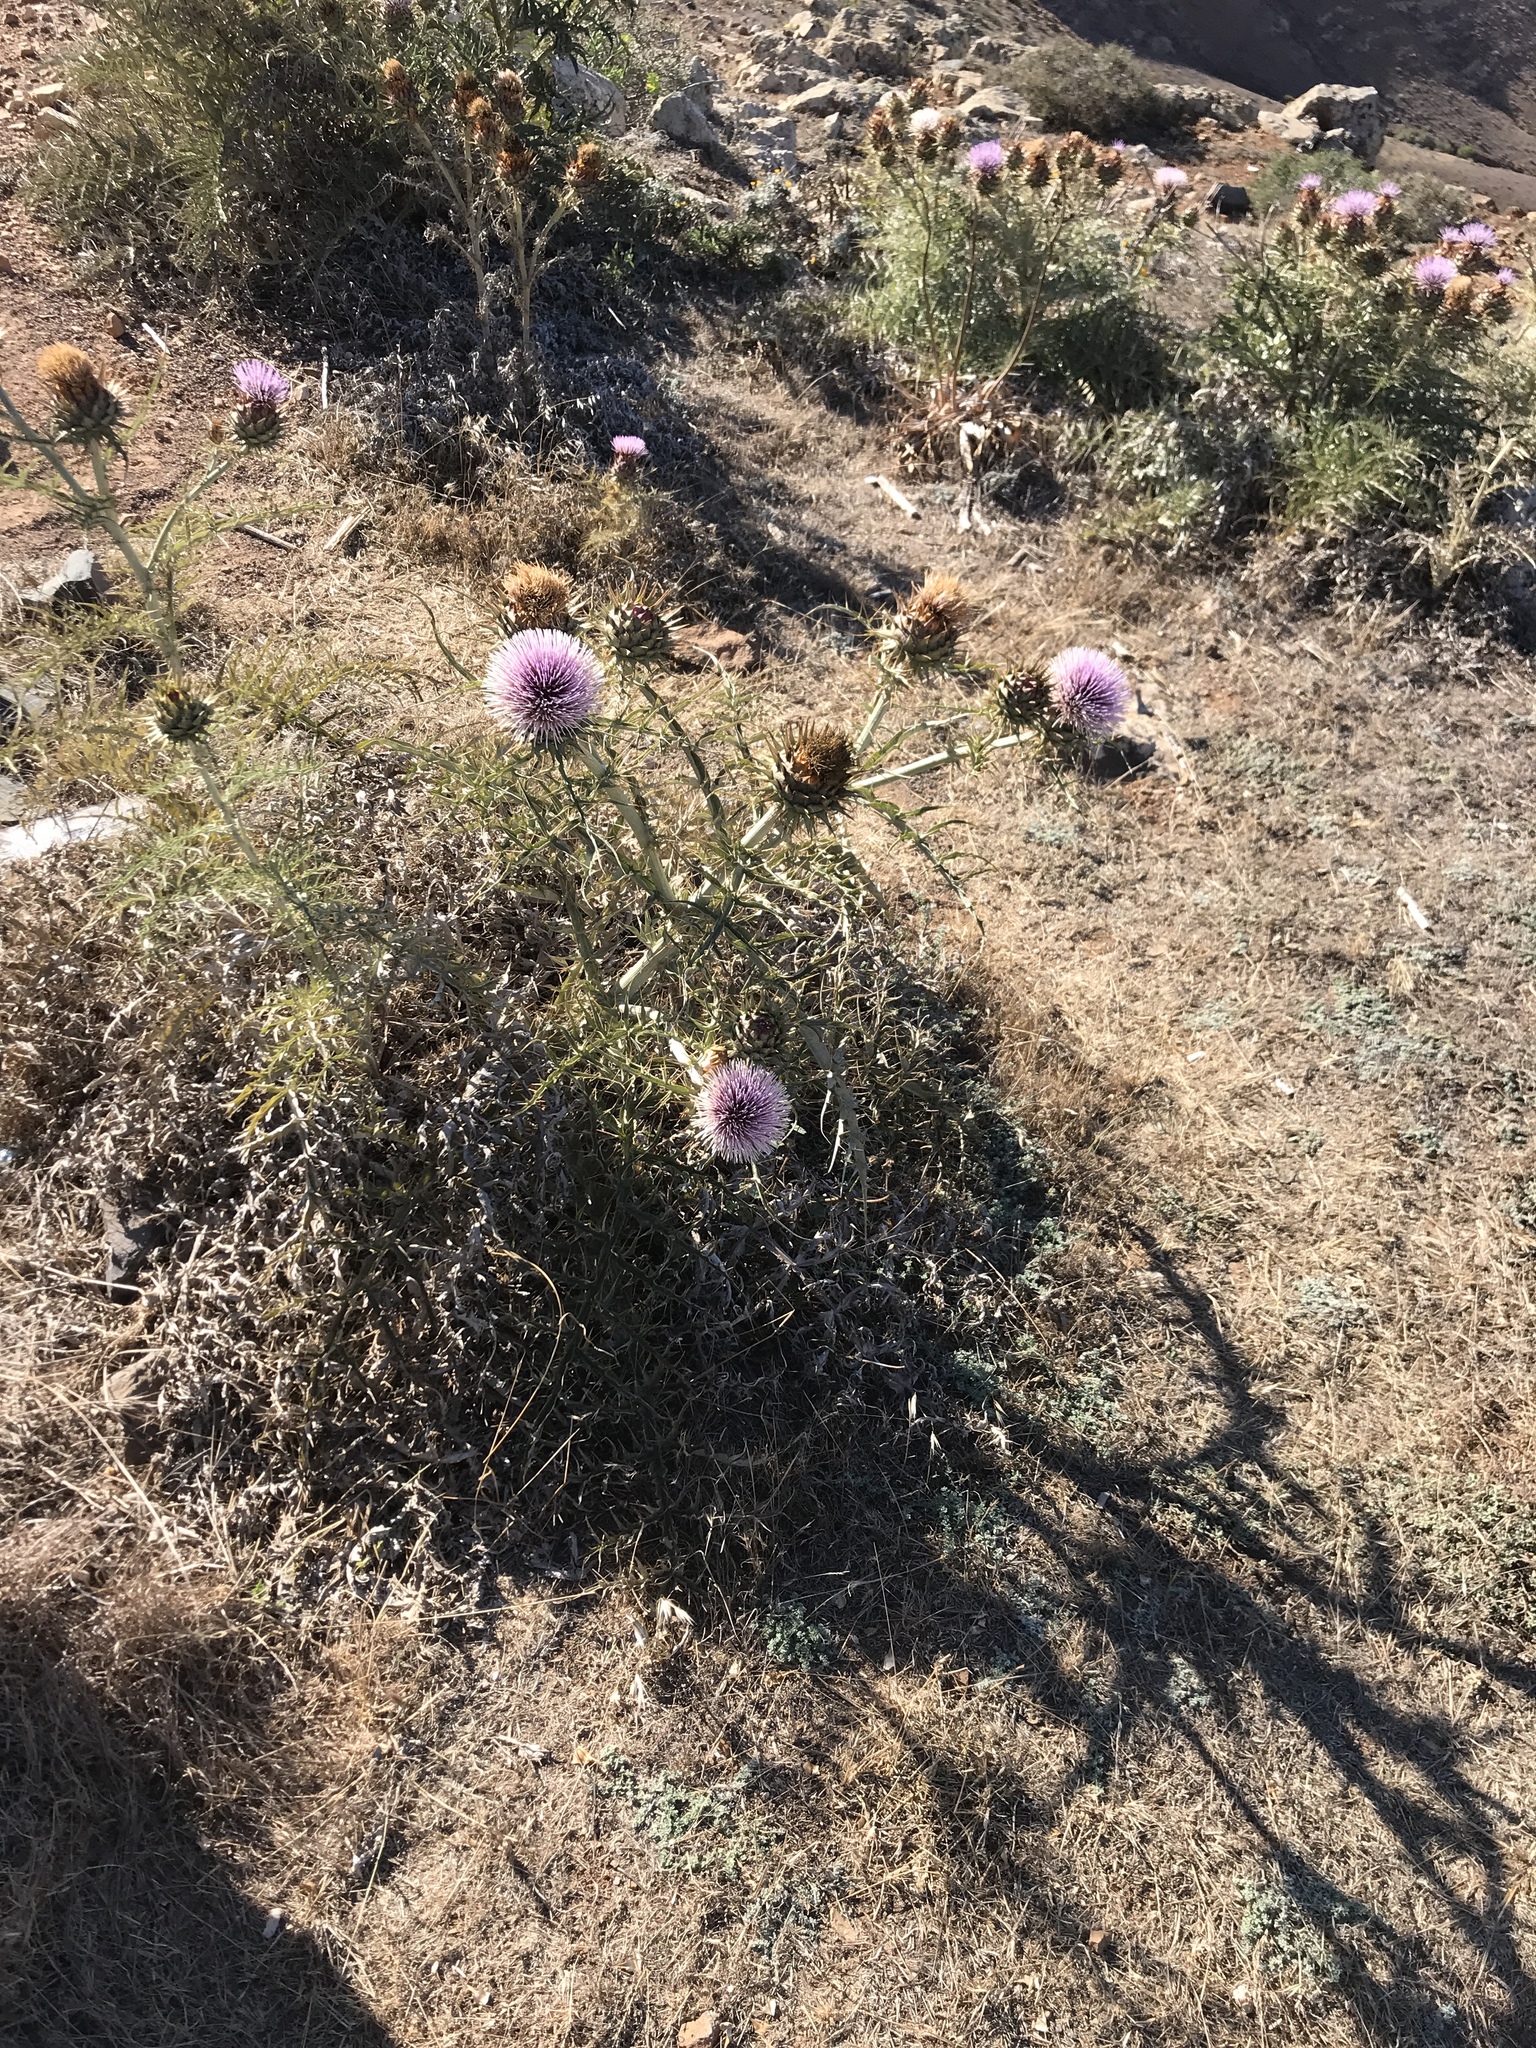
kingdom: Plantae
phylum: Tracheophyta
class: Magnoliopsida
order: Asterales
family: Asteraceae
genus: Cynara
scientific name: Cynara cardunculus
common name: Globe artichoke
